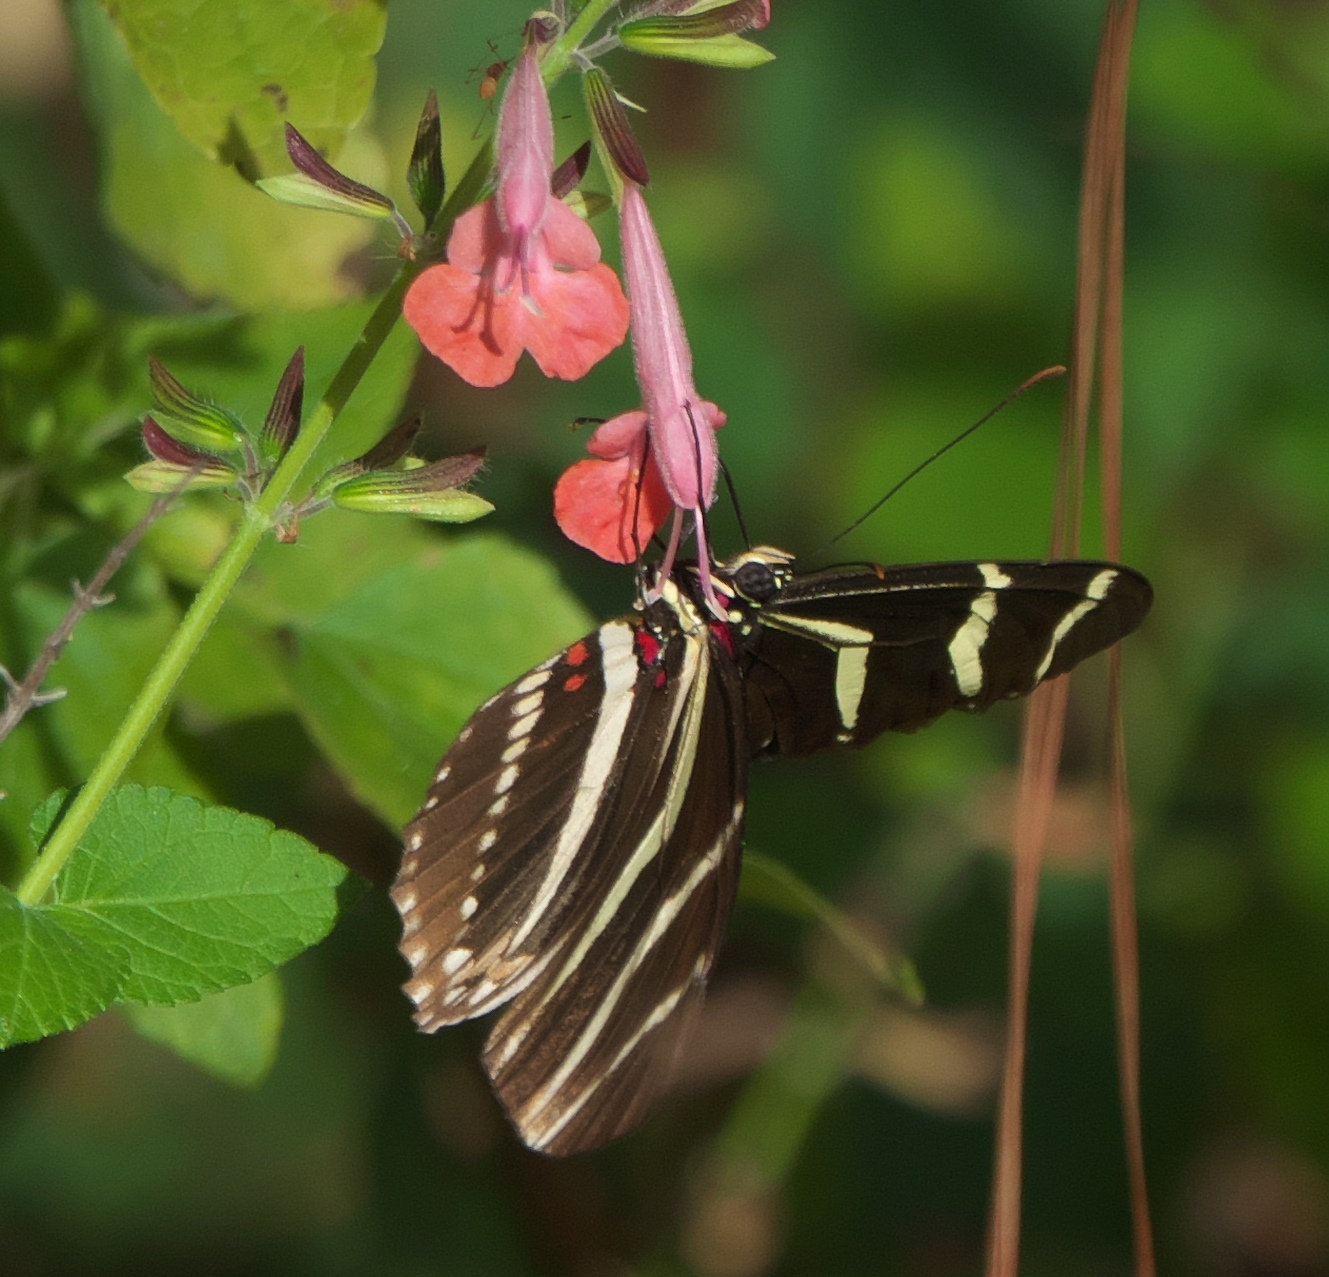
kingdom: Animalia
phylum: Arthropoda
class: Insecta
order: Lepidoptera
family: Nymphalidae
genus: Heliconius
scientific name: Heliconius charithonia
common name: Zebra long wing
